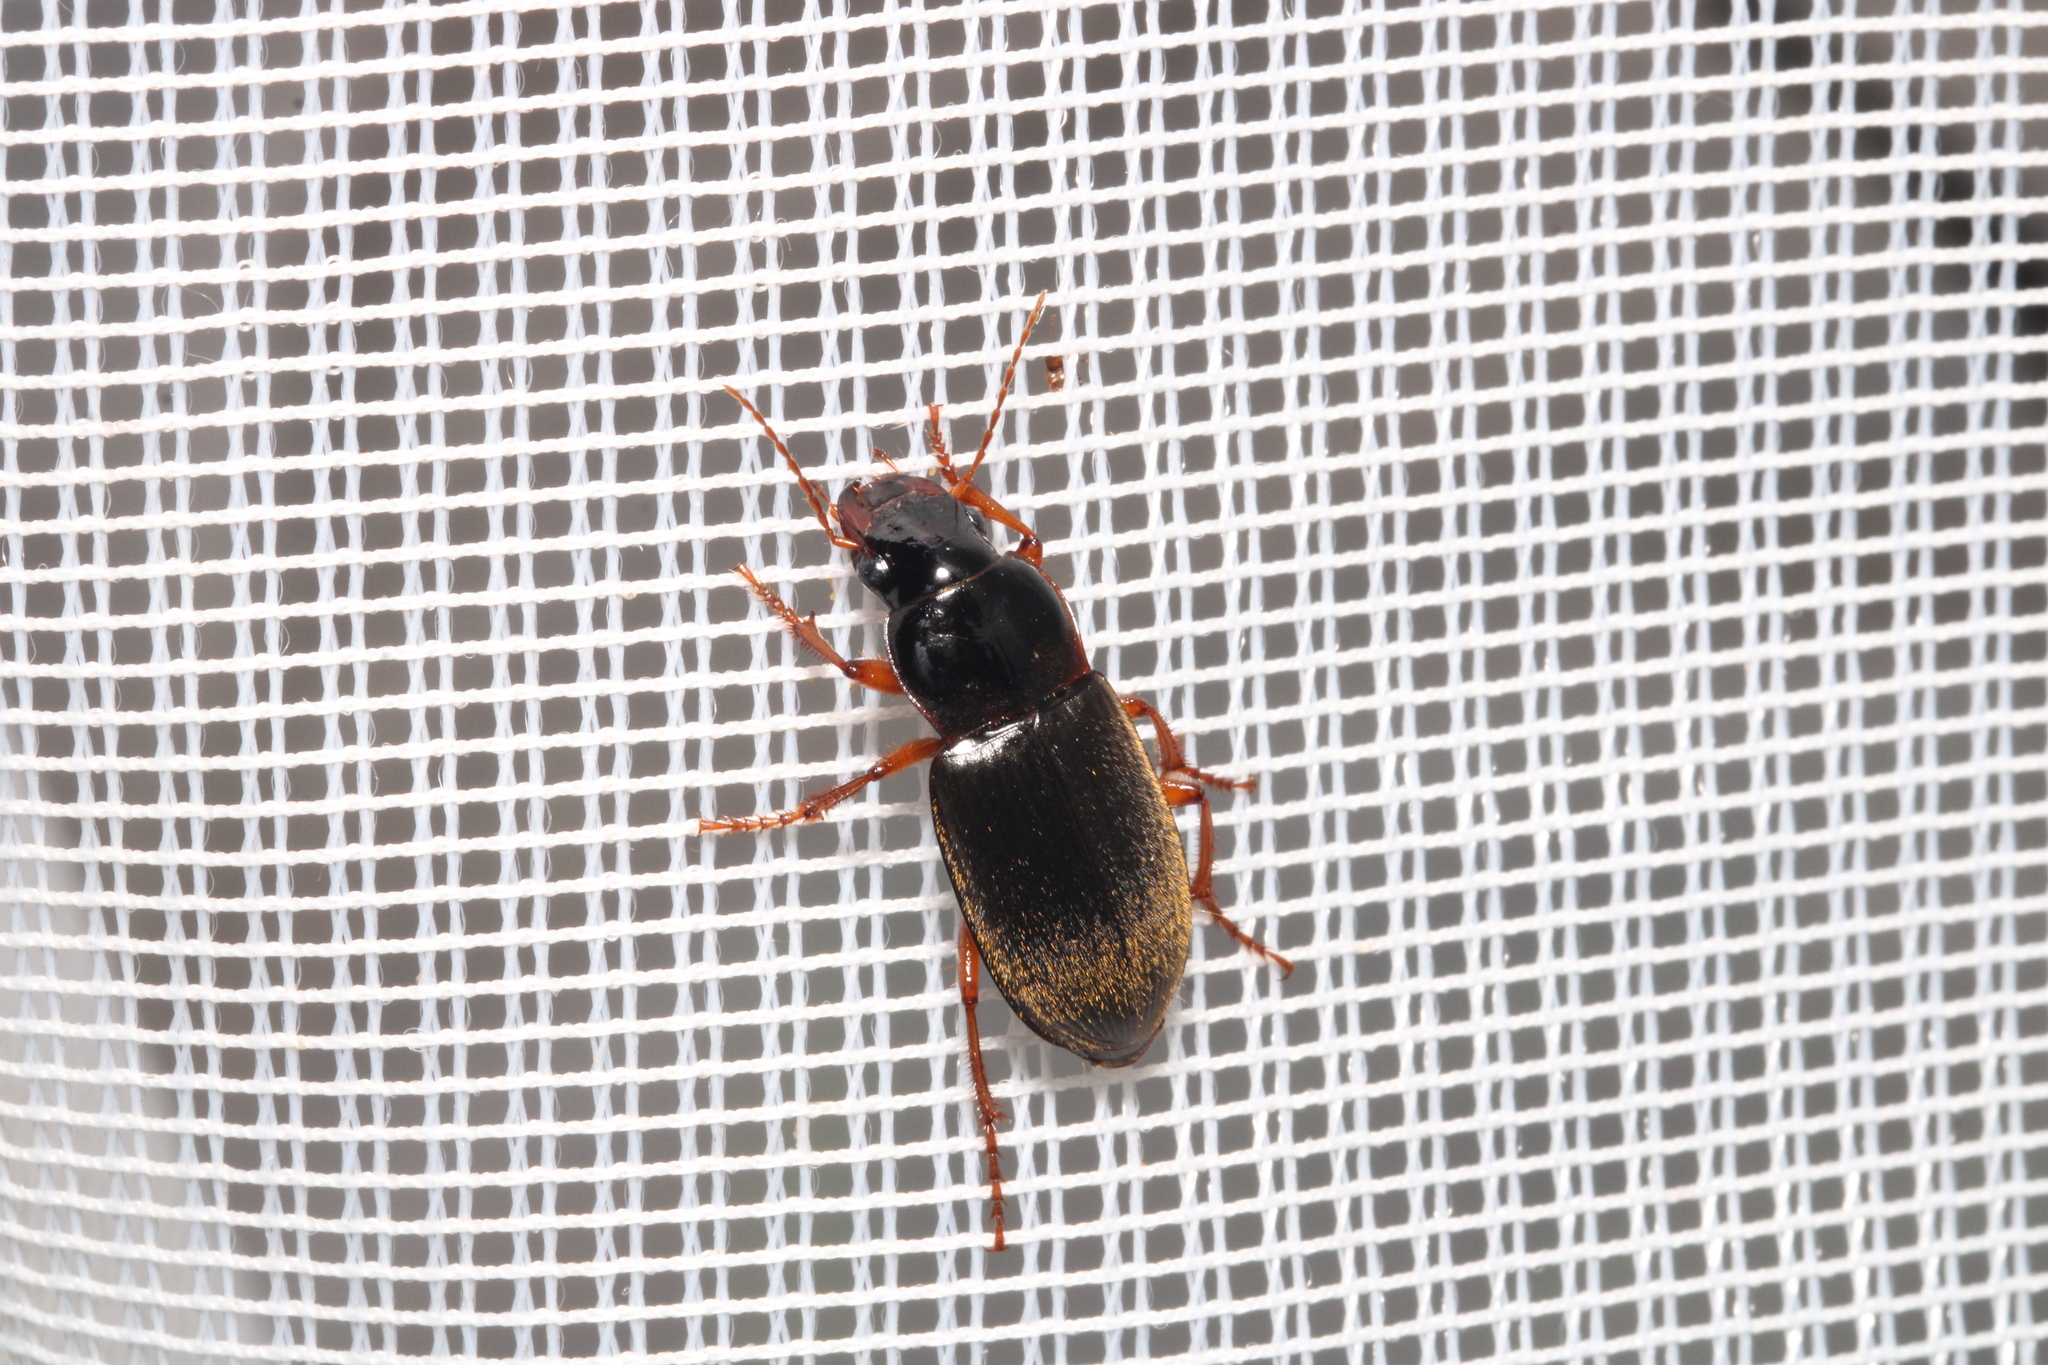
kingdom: Animalia
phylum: Arthropoda
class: Insecta
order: Coleoptera
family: Carabidae
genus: Harpalus
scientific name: Harpalus rufipes
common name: Strawberry harp ground beetle
